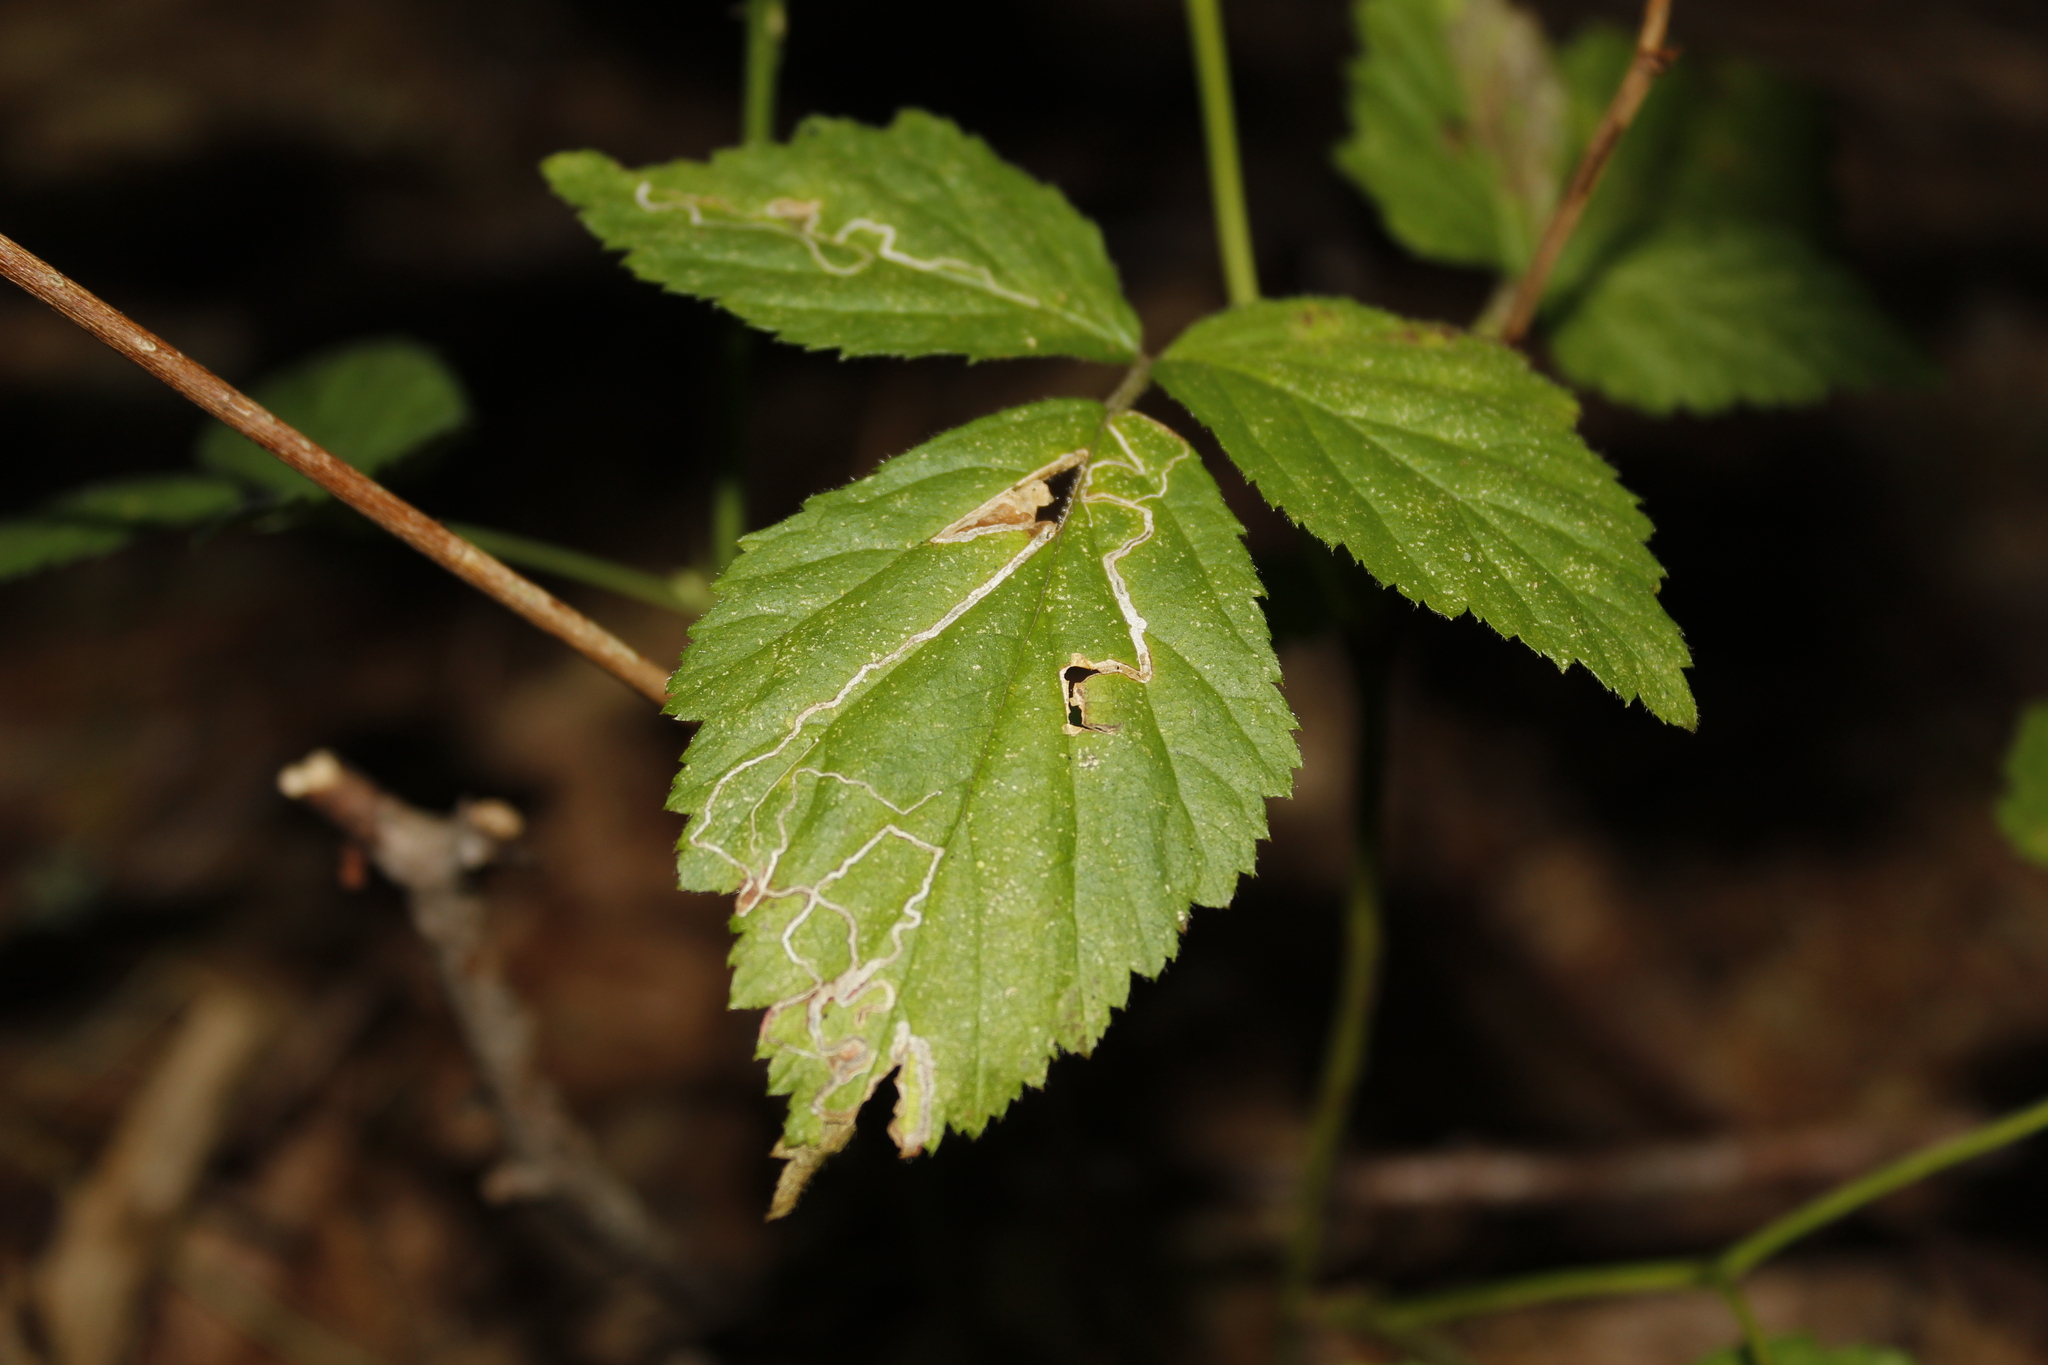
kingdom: Animalia
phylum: Arthropoda
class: Insecta
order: Lepidoptera
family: Nepticulidae
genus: Stigmella
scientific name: Stigmella villosella
